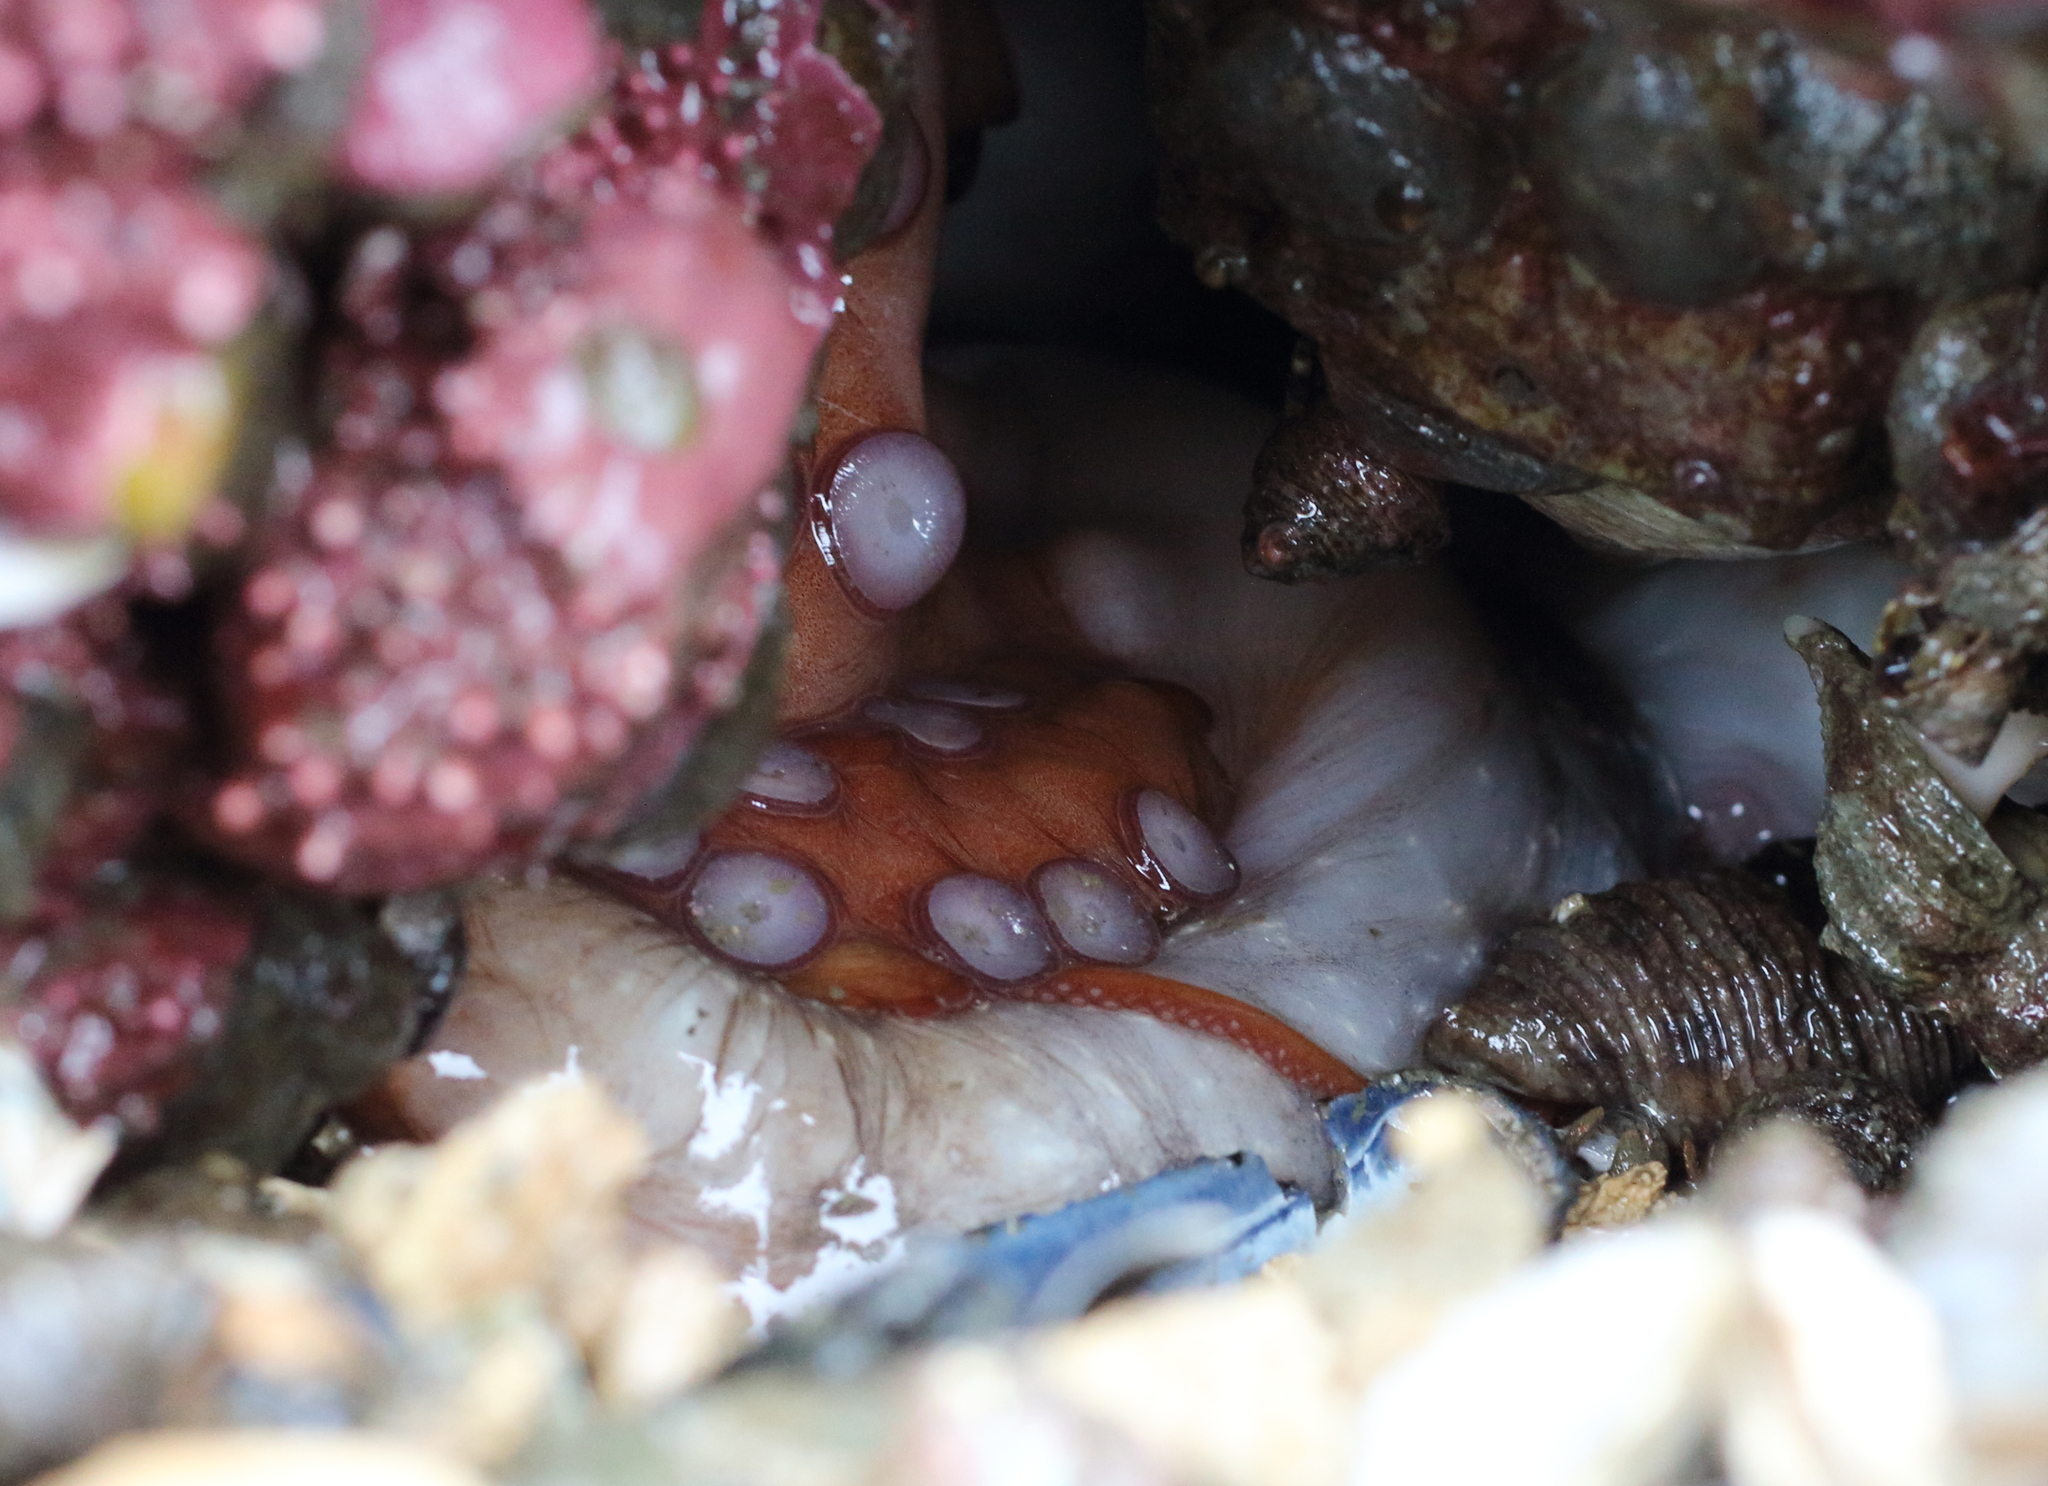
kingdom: Animalia
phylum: Mollusca
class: Cephalopoda
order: Octopoda
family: Enteroctopodidae
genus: Enteroctopus
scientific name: Enteroctopus dofleini
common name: Giant north pacific octopus
